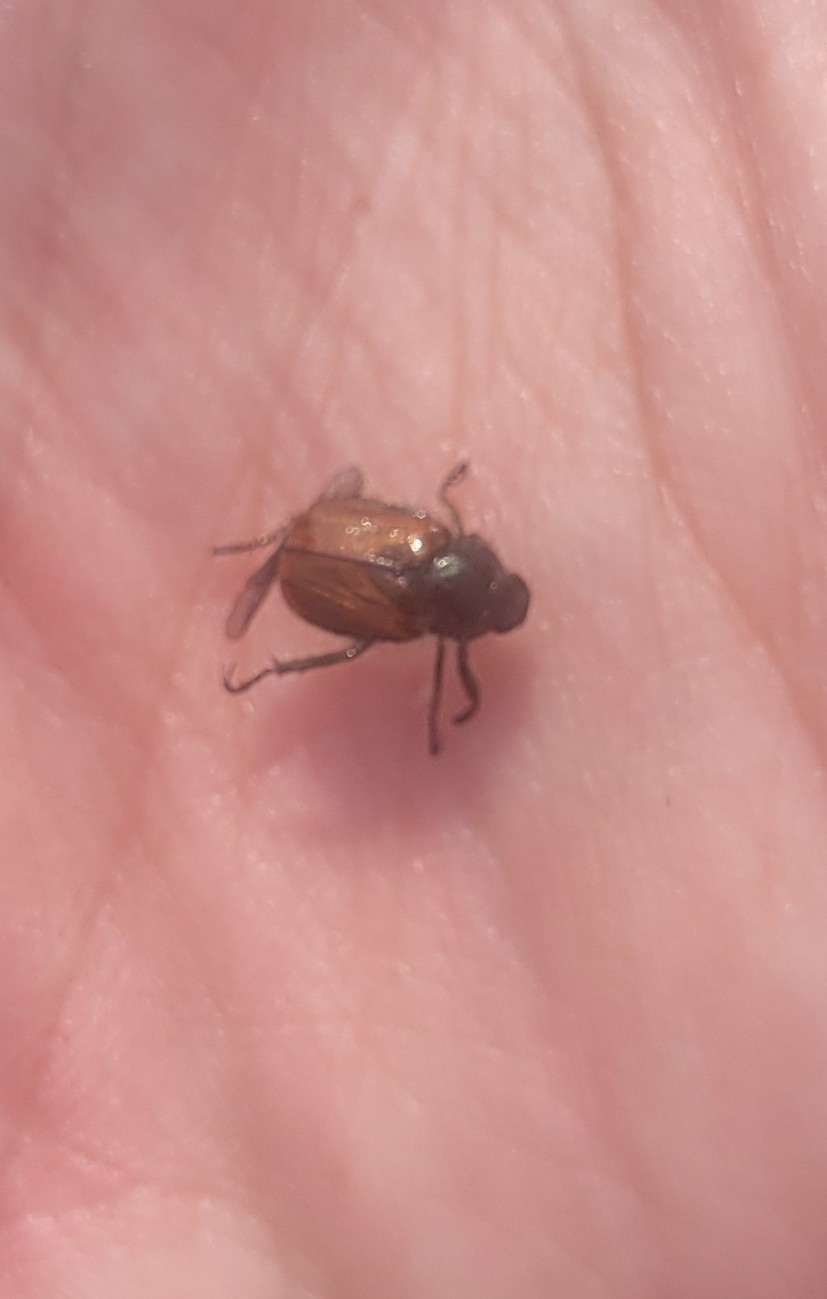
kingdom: Animalia
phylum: Arthropoda
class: Insecta
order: Coleoptera
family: Scarabaeidae
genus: Phyllopertha
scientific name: Phyllopertha horticola
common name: Garden chafer
